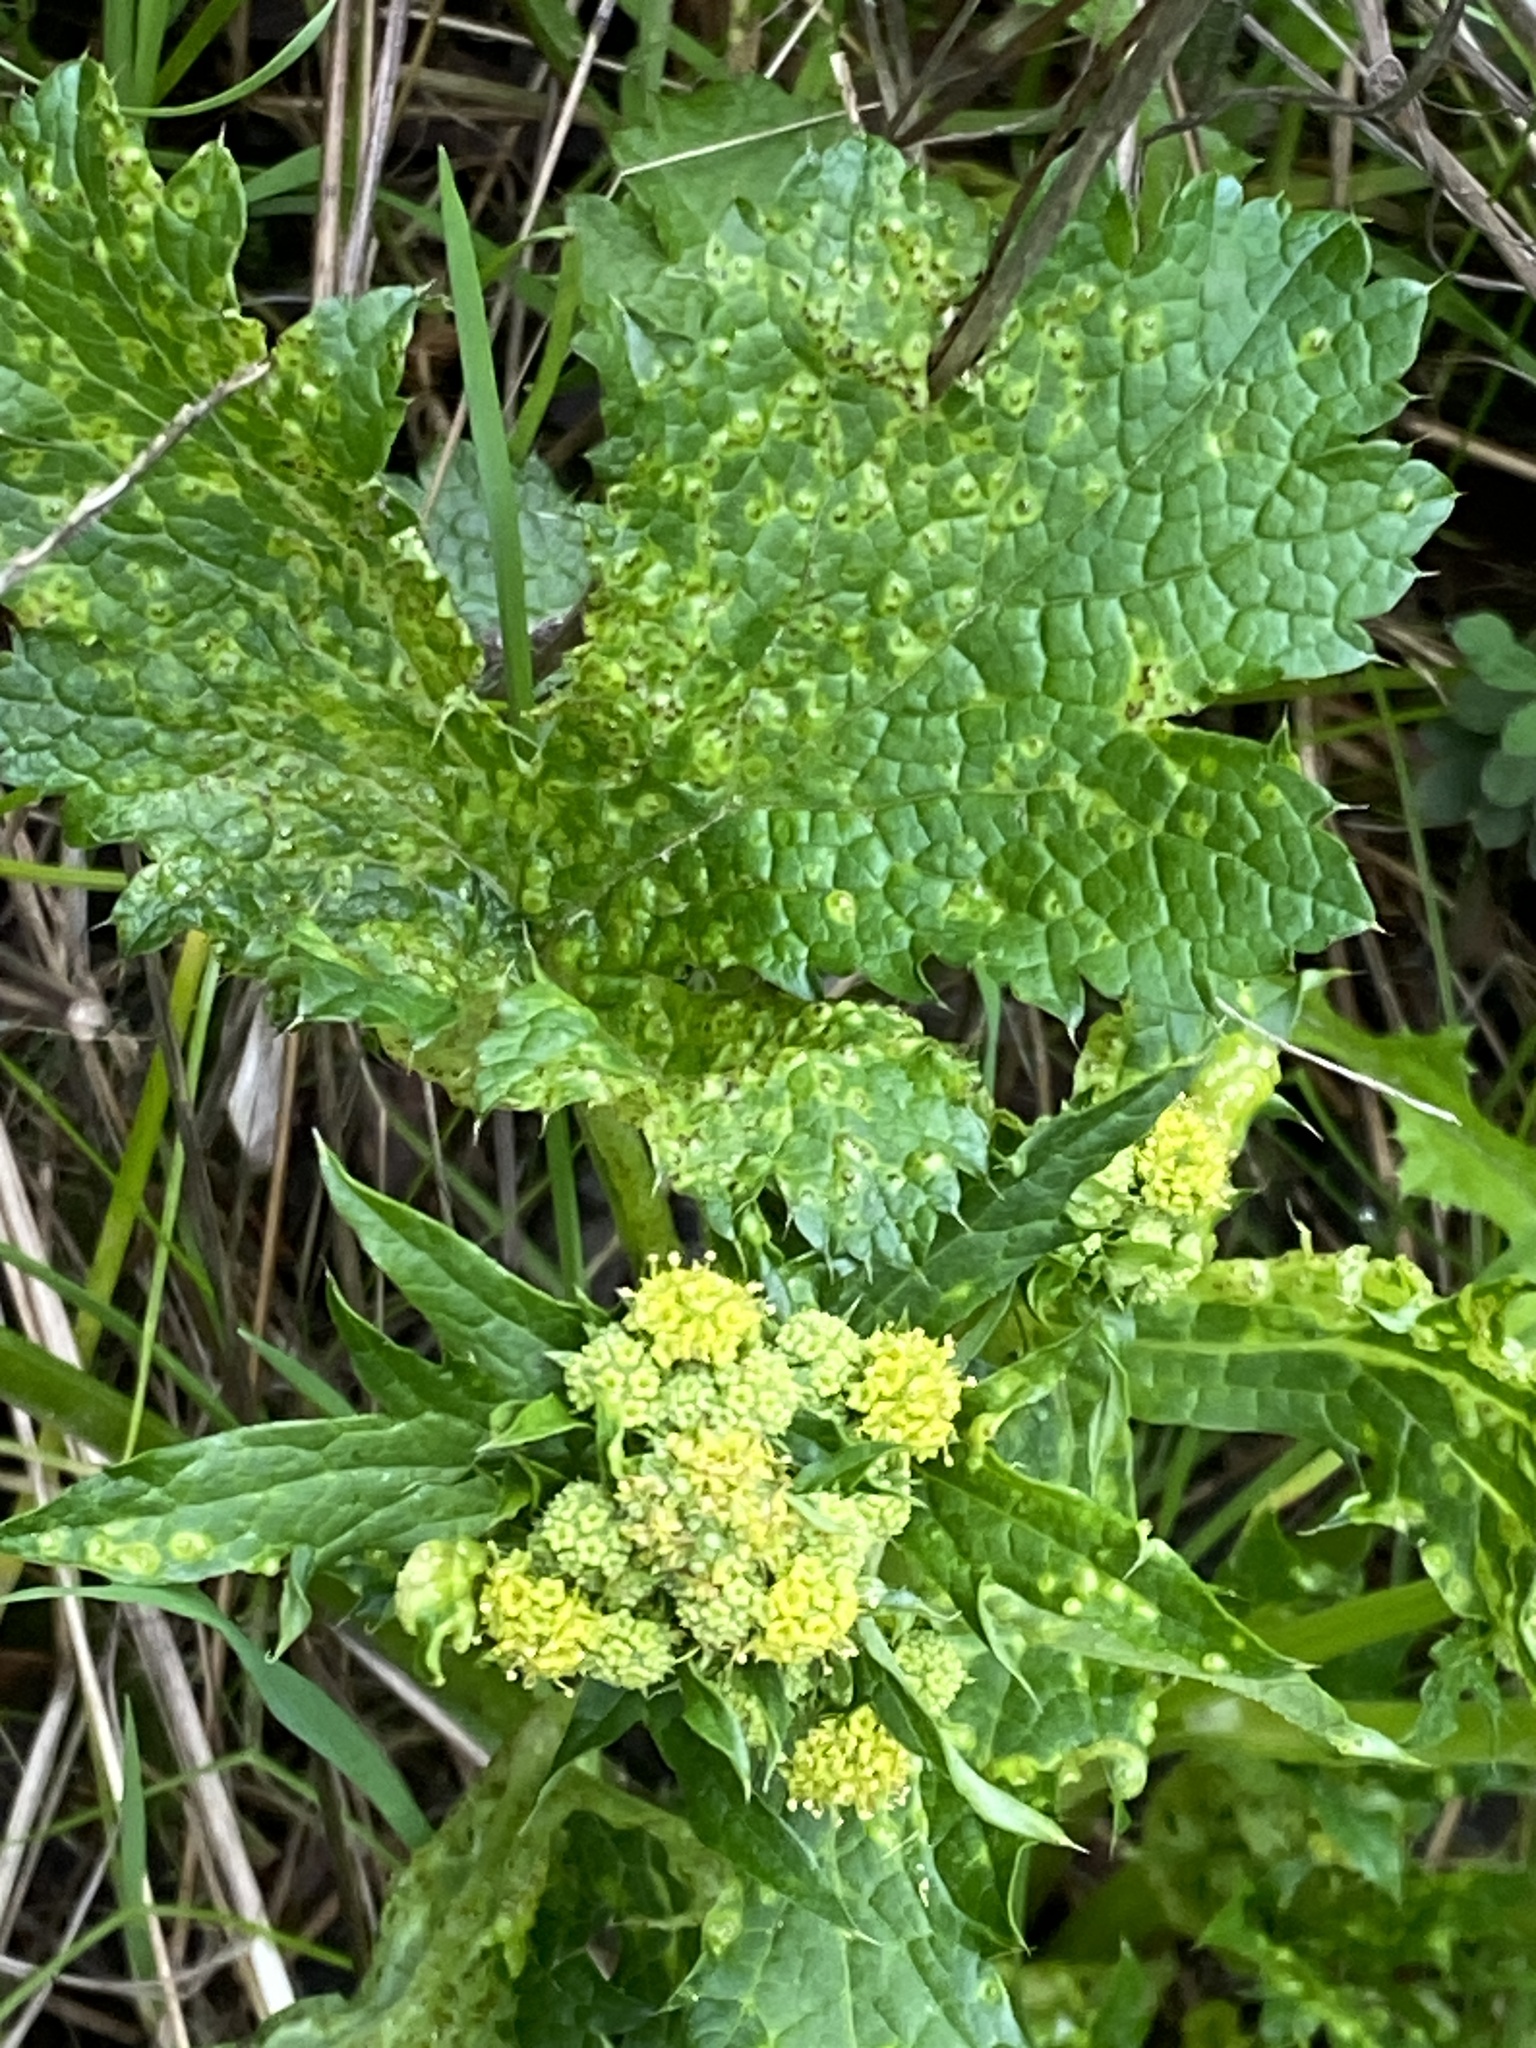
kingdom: Plantae
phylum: Tracheophyta
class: Magnoliopsida
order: Apiales
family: Apiaceae
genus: Sanicula
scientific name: Sanicula crassicaulis
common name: Western snakeroot
